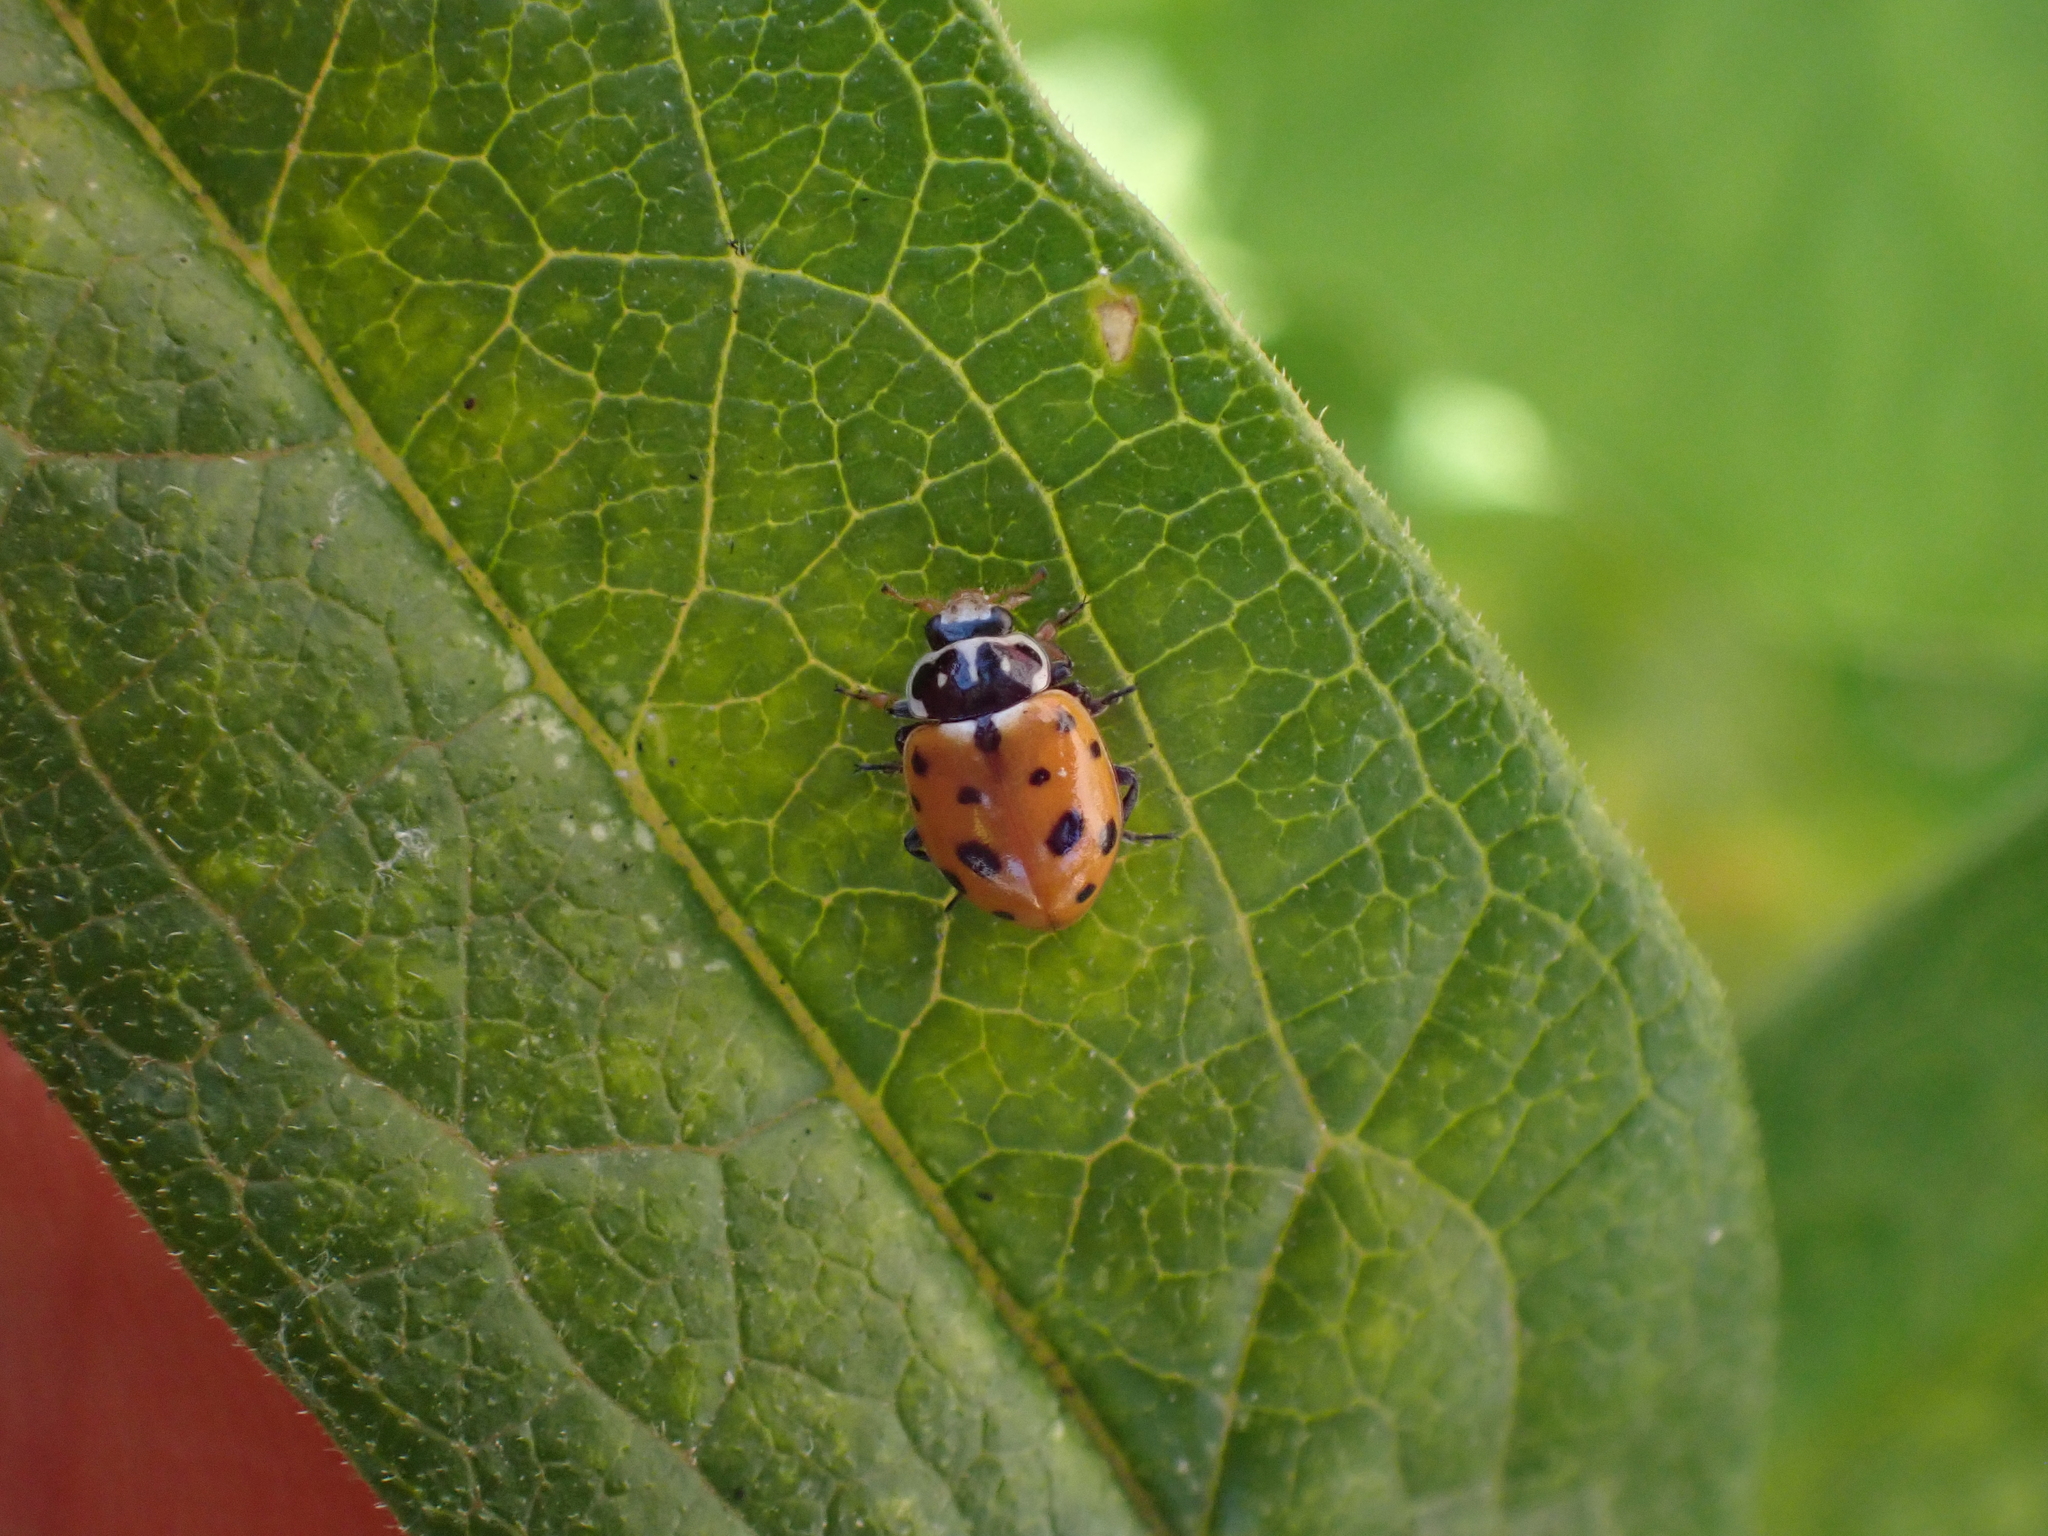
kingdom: Animalia
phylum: Arthropoda
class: Insecta
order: Coleoptera
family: Coccinellidae
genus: Hippodamia
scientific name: Hippodamia variegata
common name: Ladybird beetle
